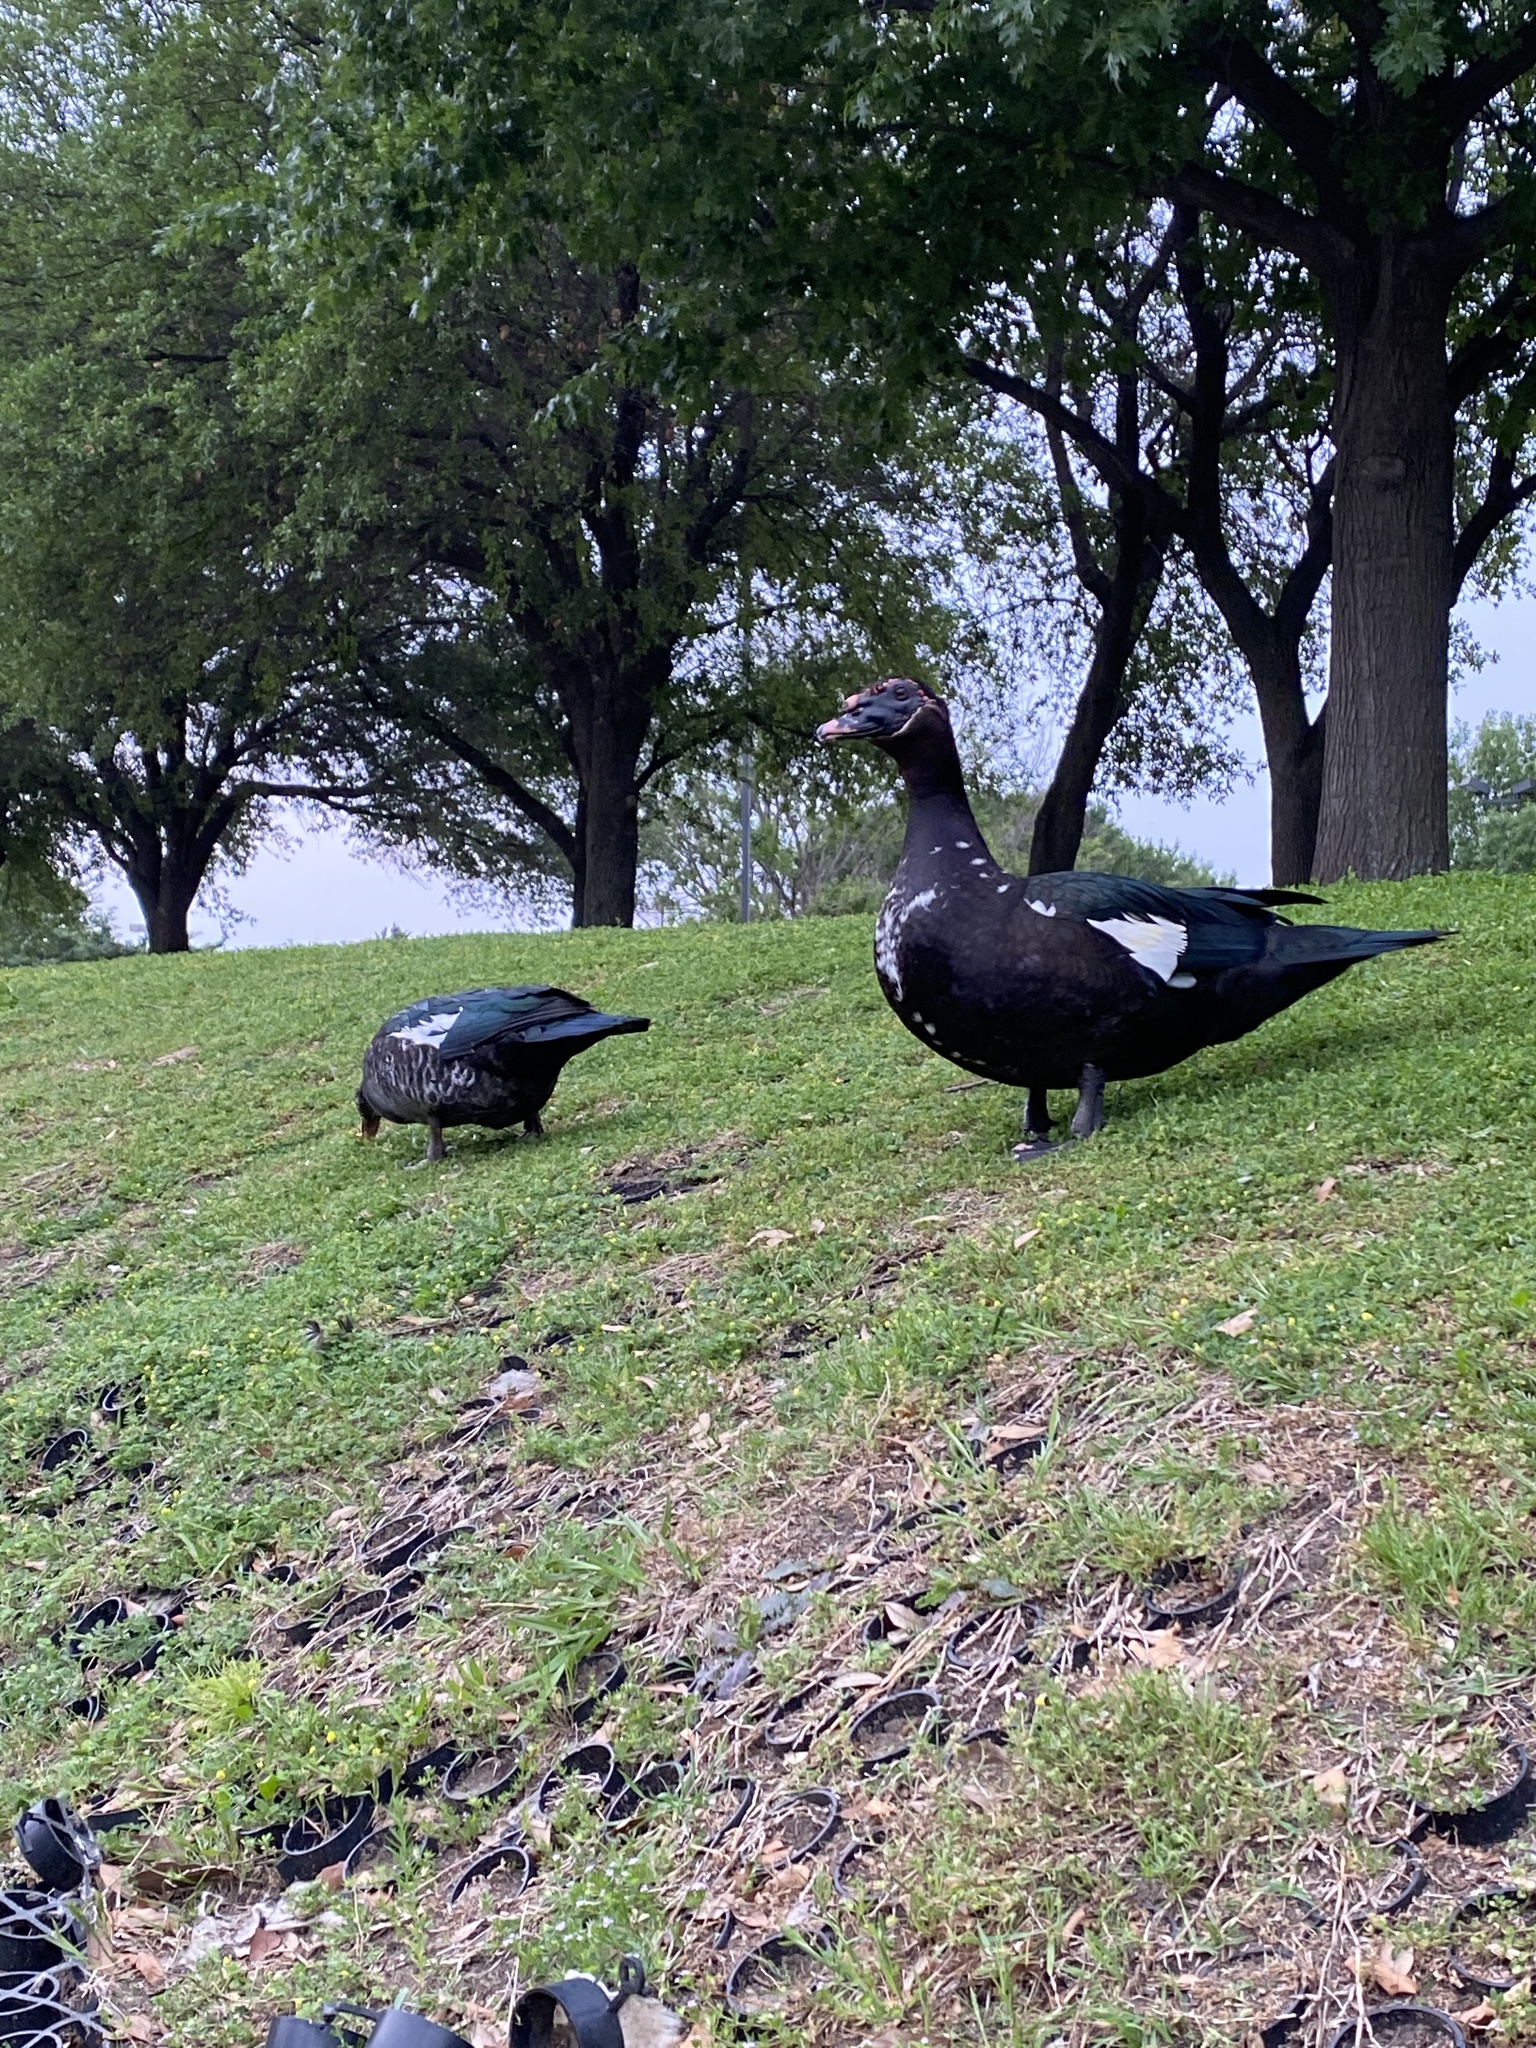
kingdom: Animalia
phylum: Chordata
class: Aves
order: Anseriformes
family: Anatidae
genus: Cairina
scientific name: Cairina moschata
